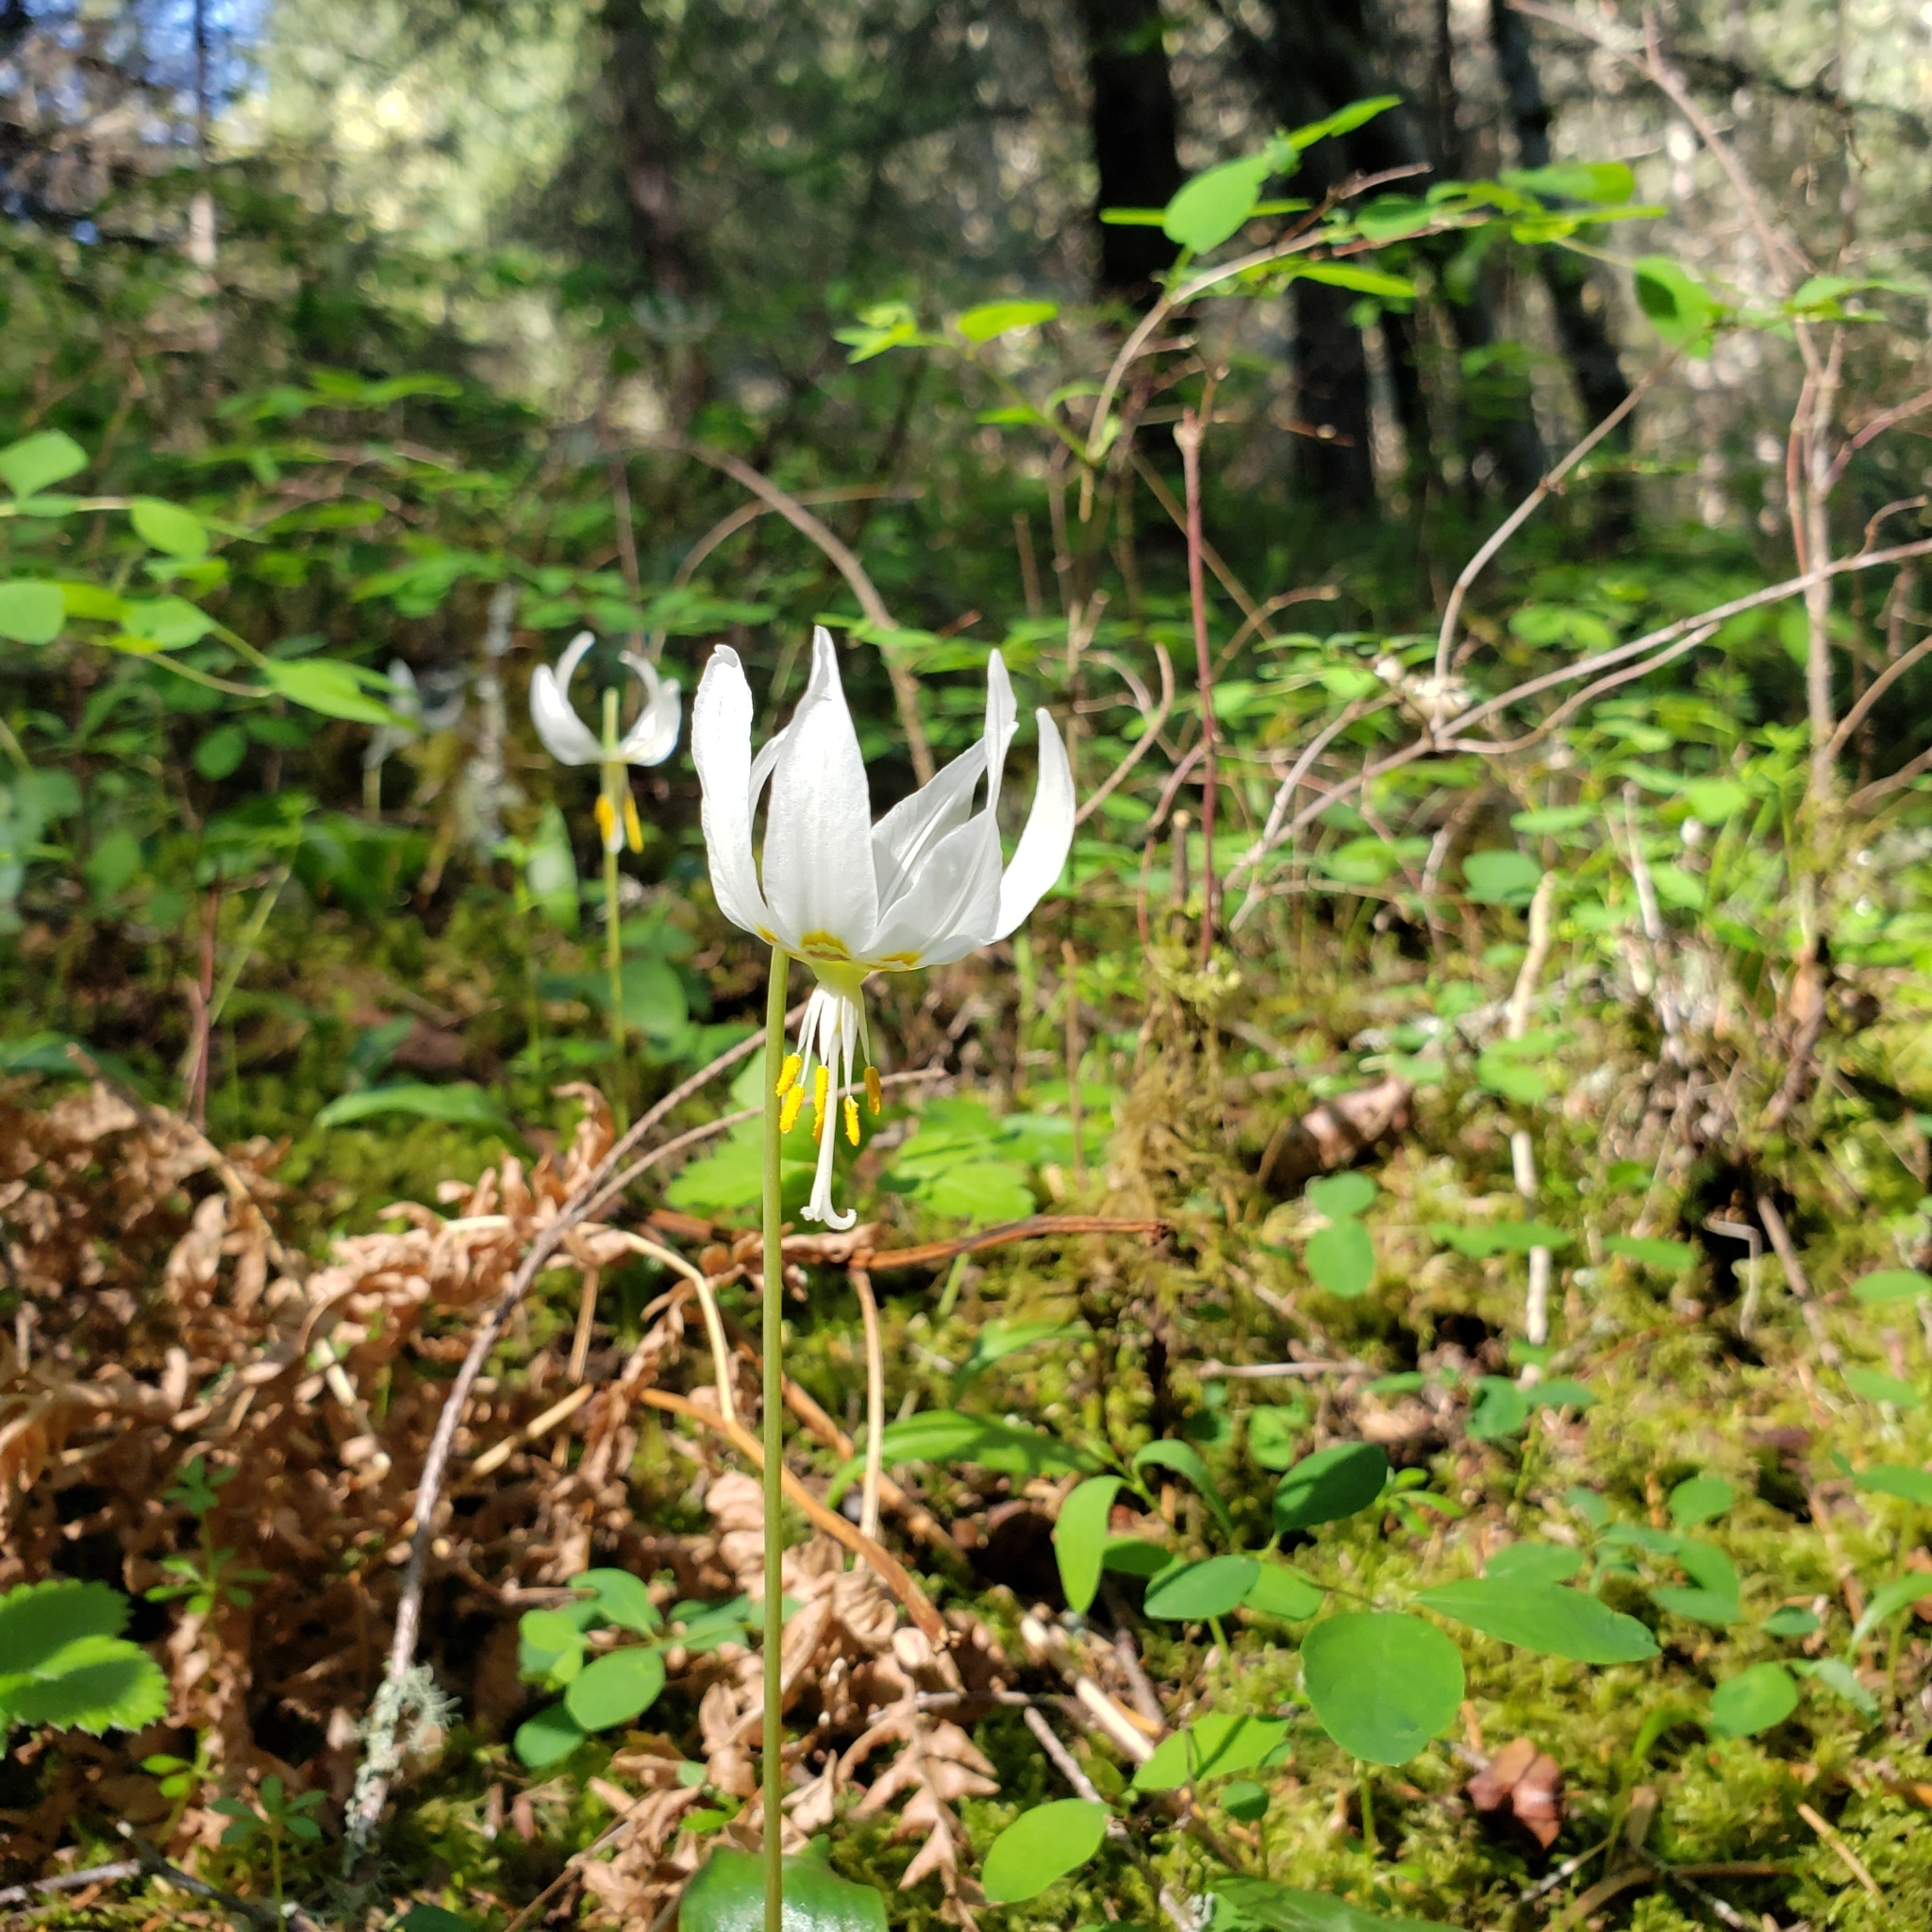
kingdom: Plantae
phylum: Tracheophyta
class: Liliopsida
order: Liliales
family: Liliaceae
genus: Erythronium
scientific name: Erythronium oregonum
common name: Giant adder's-tongue
